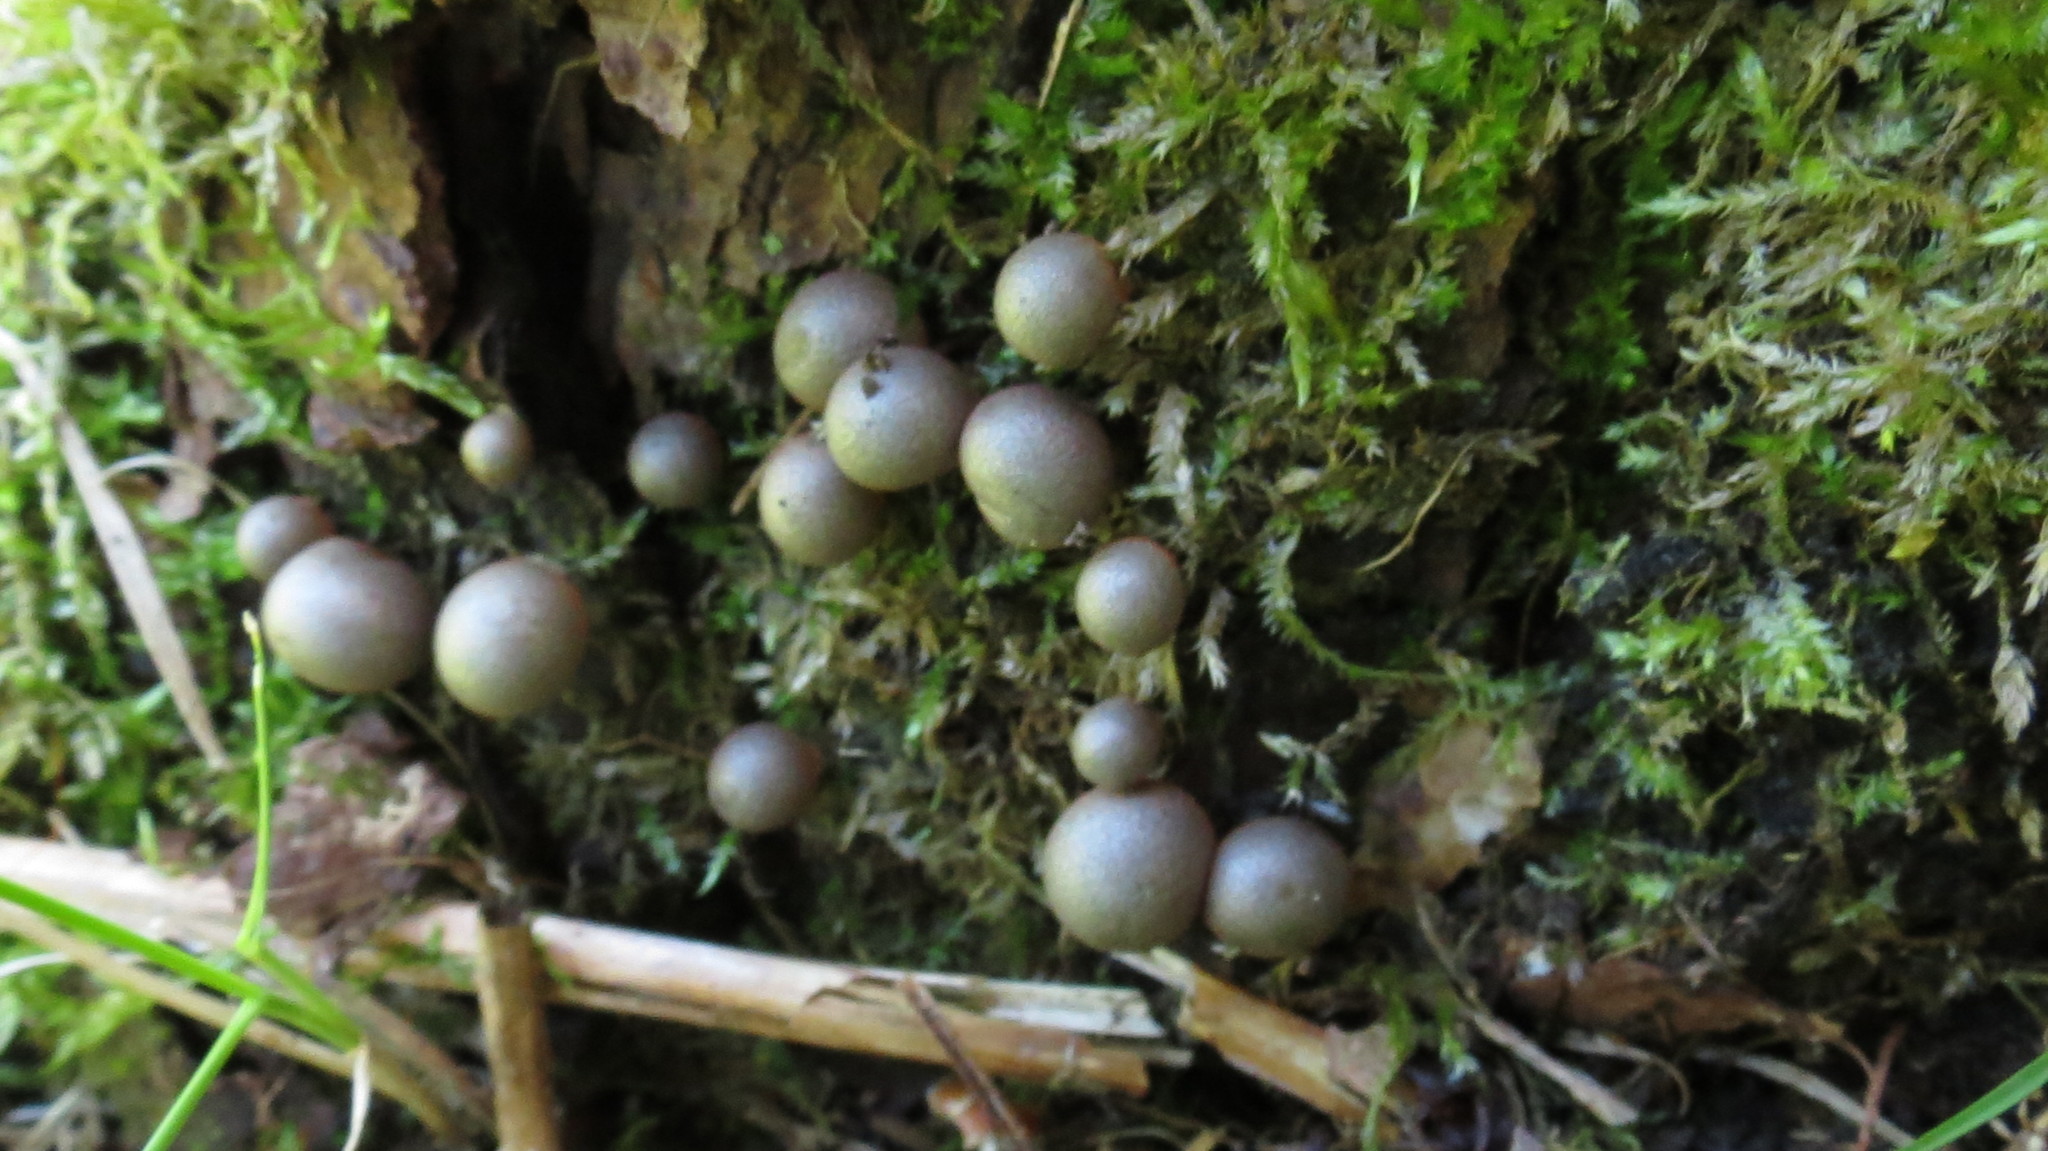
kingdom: Protozoa
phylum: Mycetozoa
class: Myxomycetes
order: Cribrariales
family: Tubiferaceae
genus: Lycogala
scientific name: Lycogala epidendrum
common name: Wolf's milk
